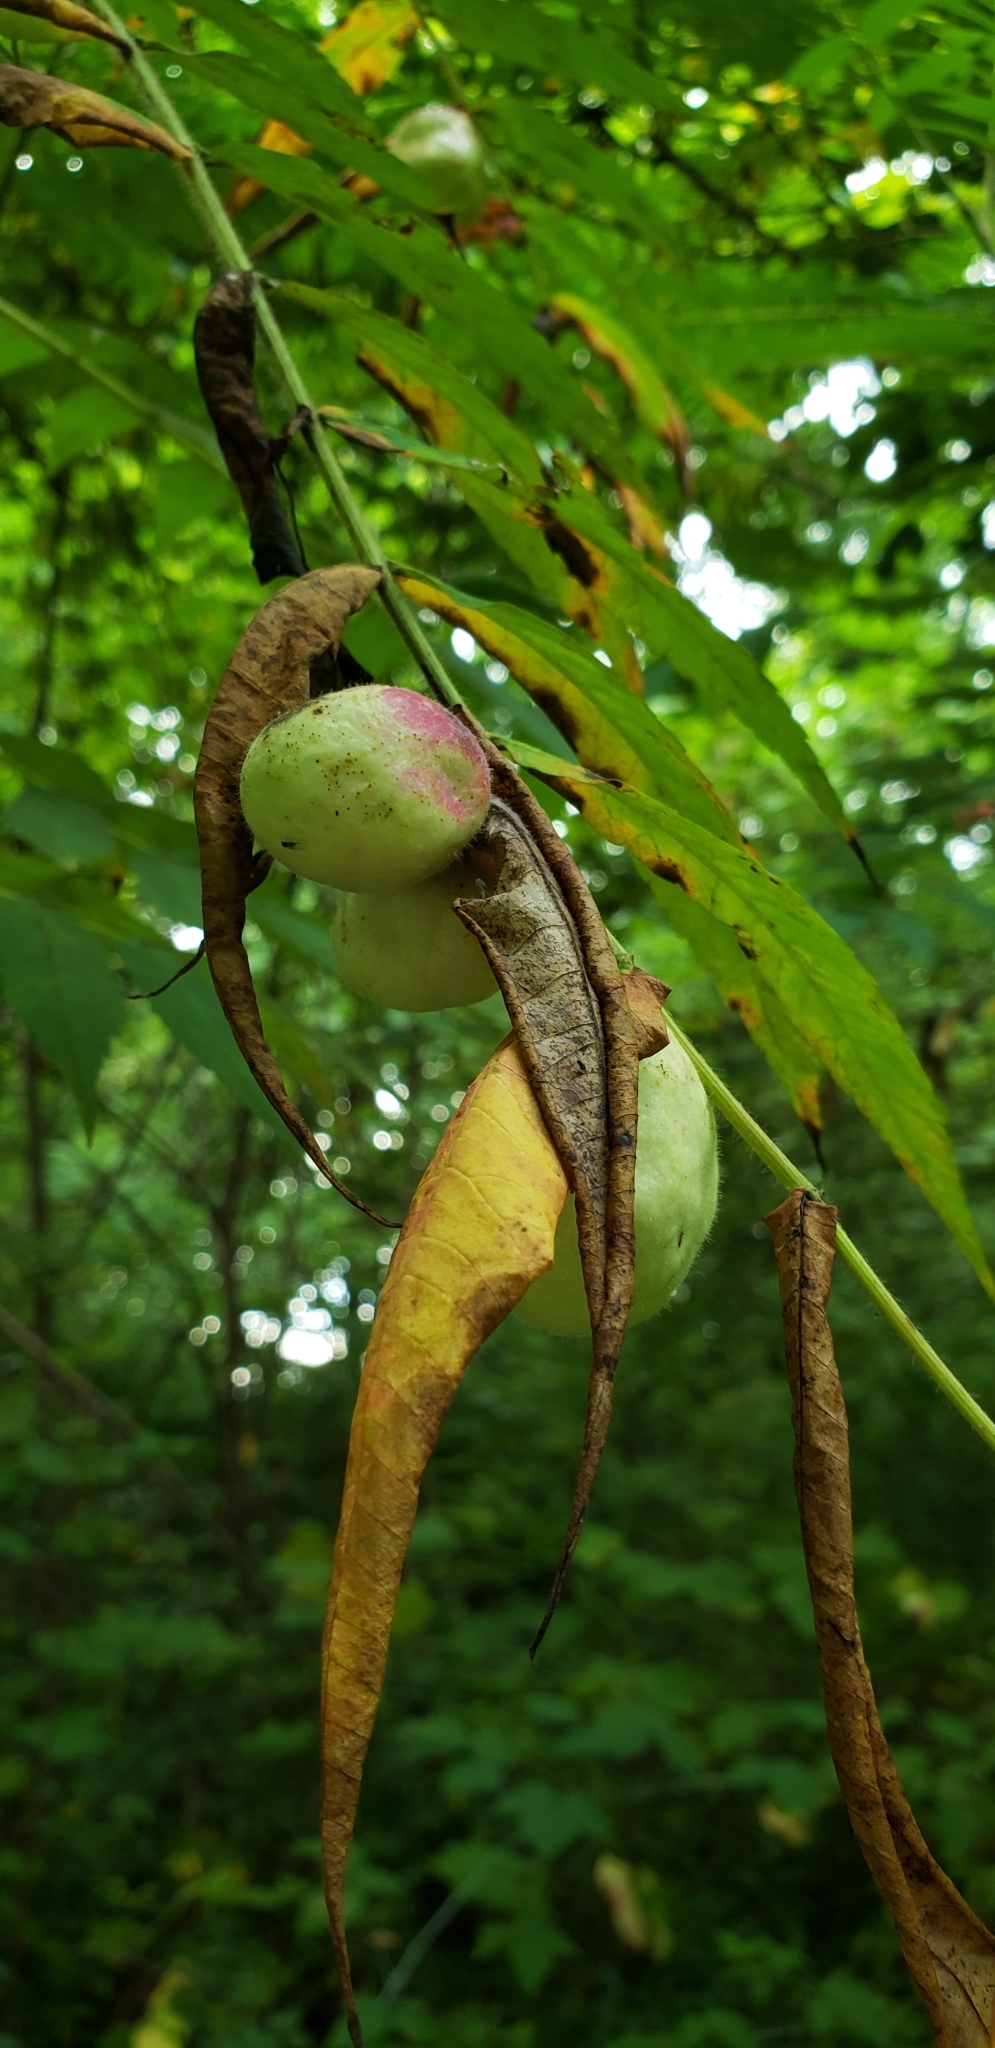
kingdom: Animalia
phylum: Arthropoda
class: Insecta
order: Hemiptera
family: Aphididae
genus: Melaphis
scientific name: Melaphis rhois
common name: Sumac gall aphid
